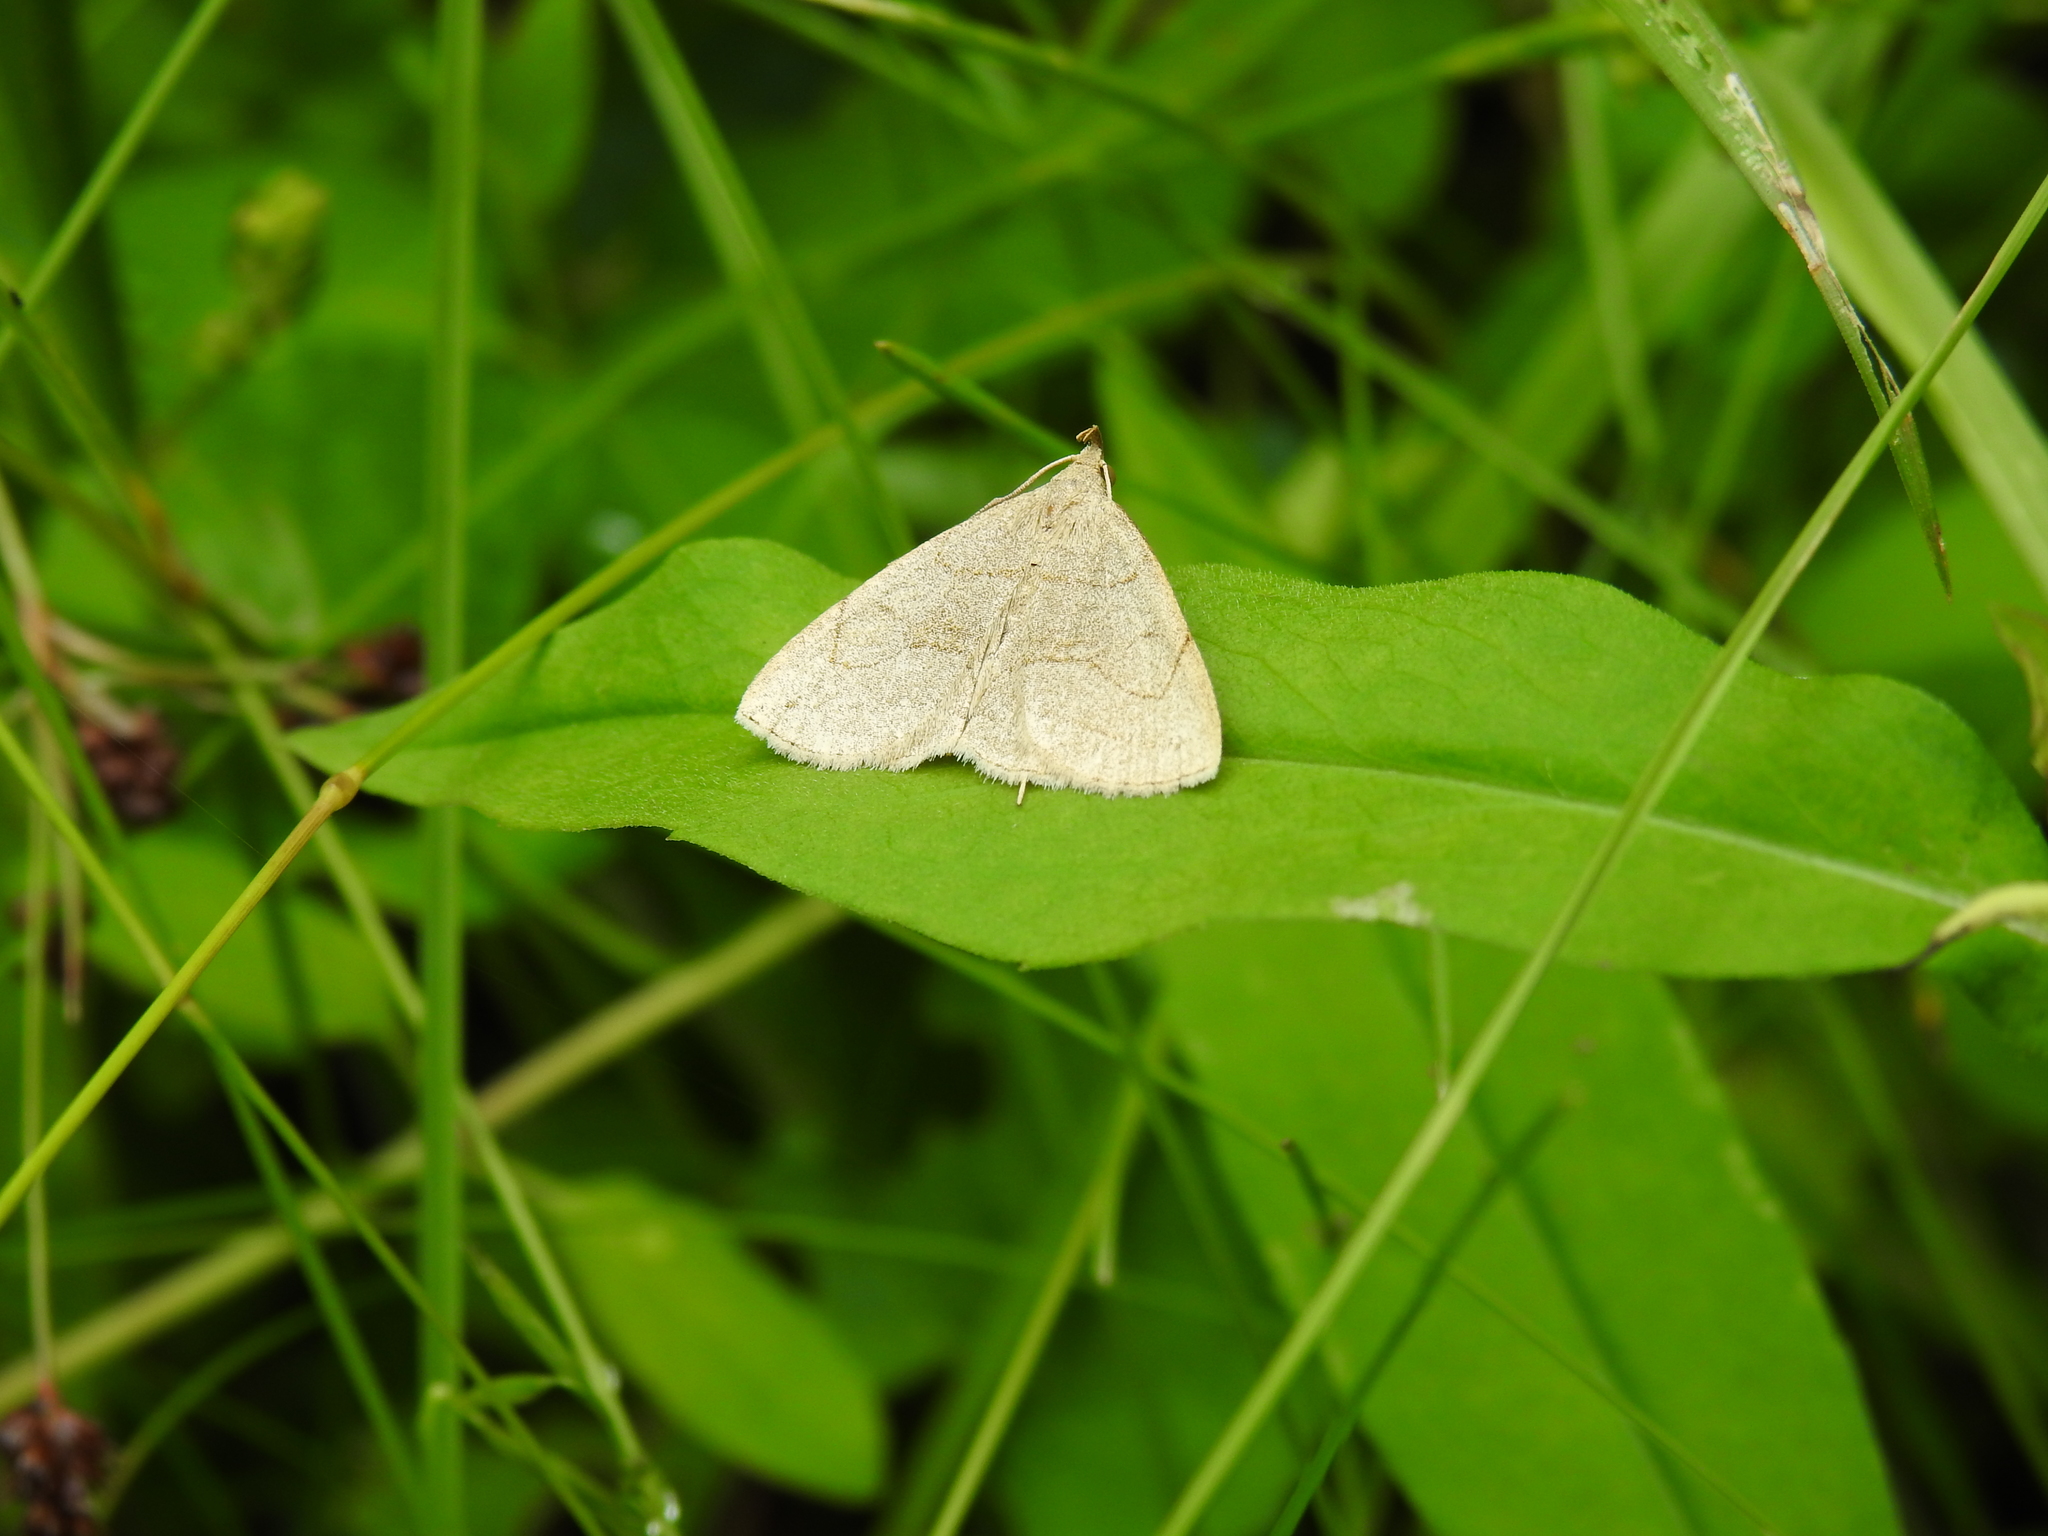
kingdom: Animalia
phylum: Arthropoda
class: Insecta
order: Lepidoptera
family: Erebidae
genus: Zanclognatha
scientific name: Zanclognatha pedipilalis
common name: Grayish fan-foot
